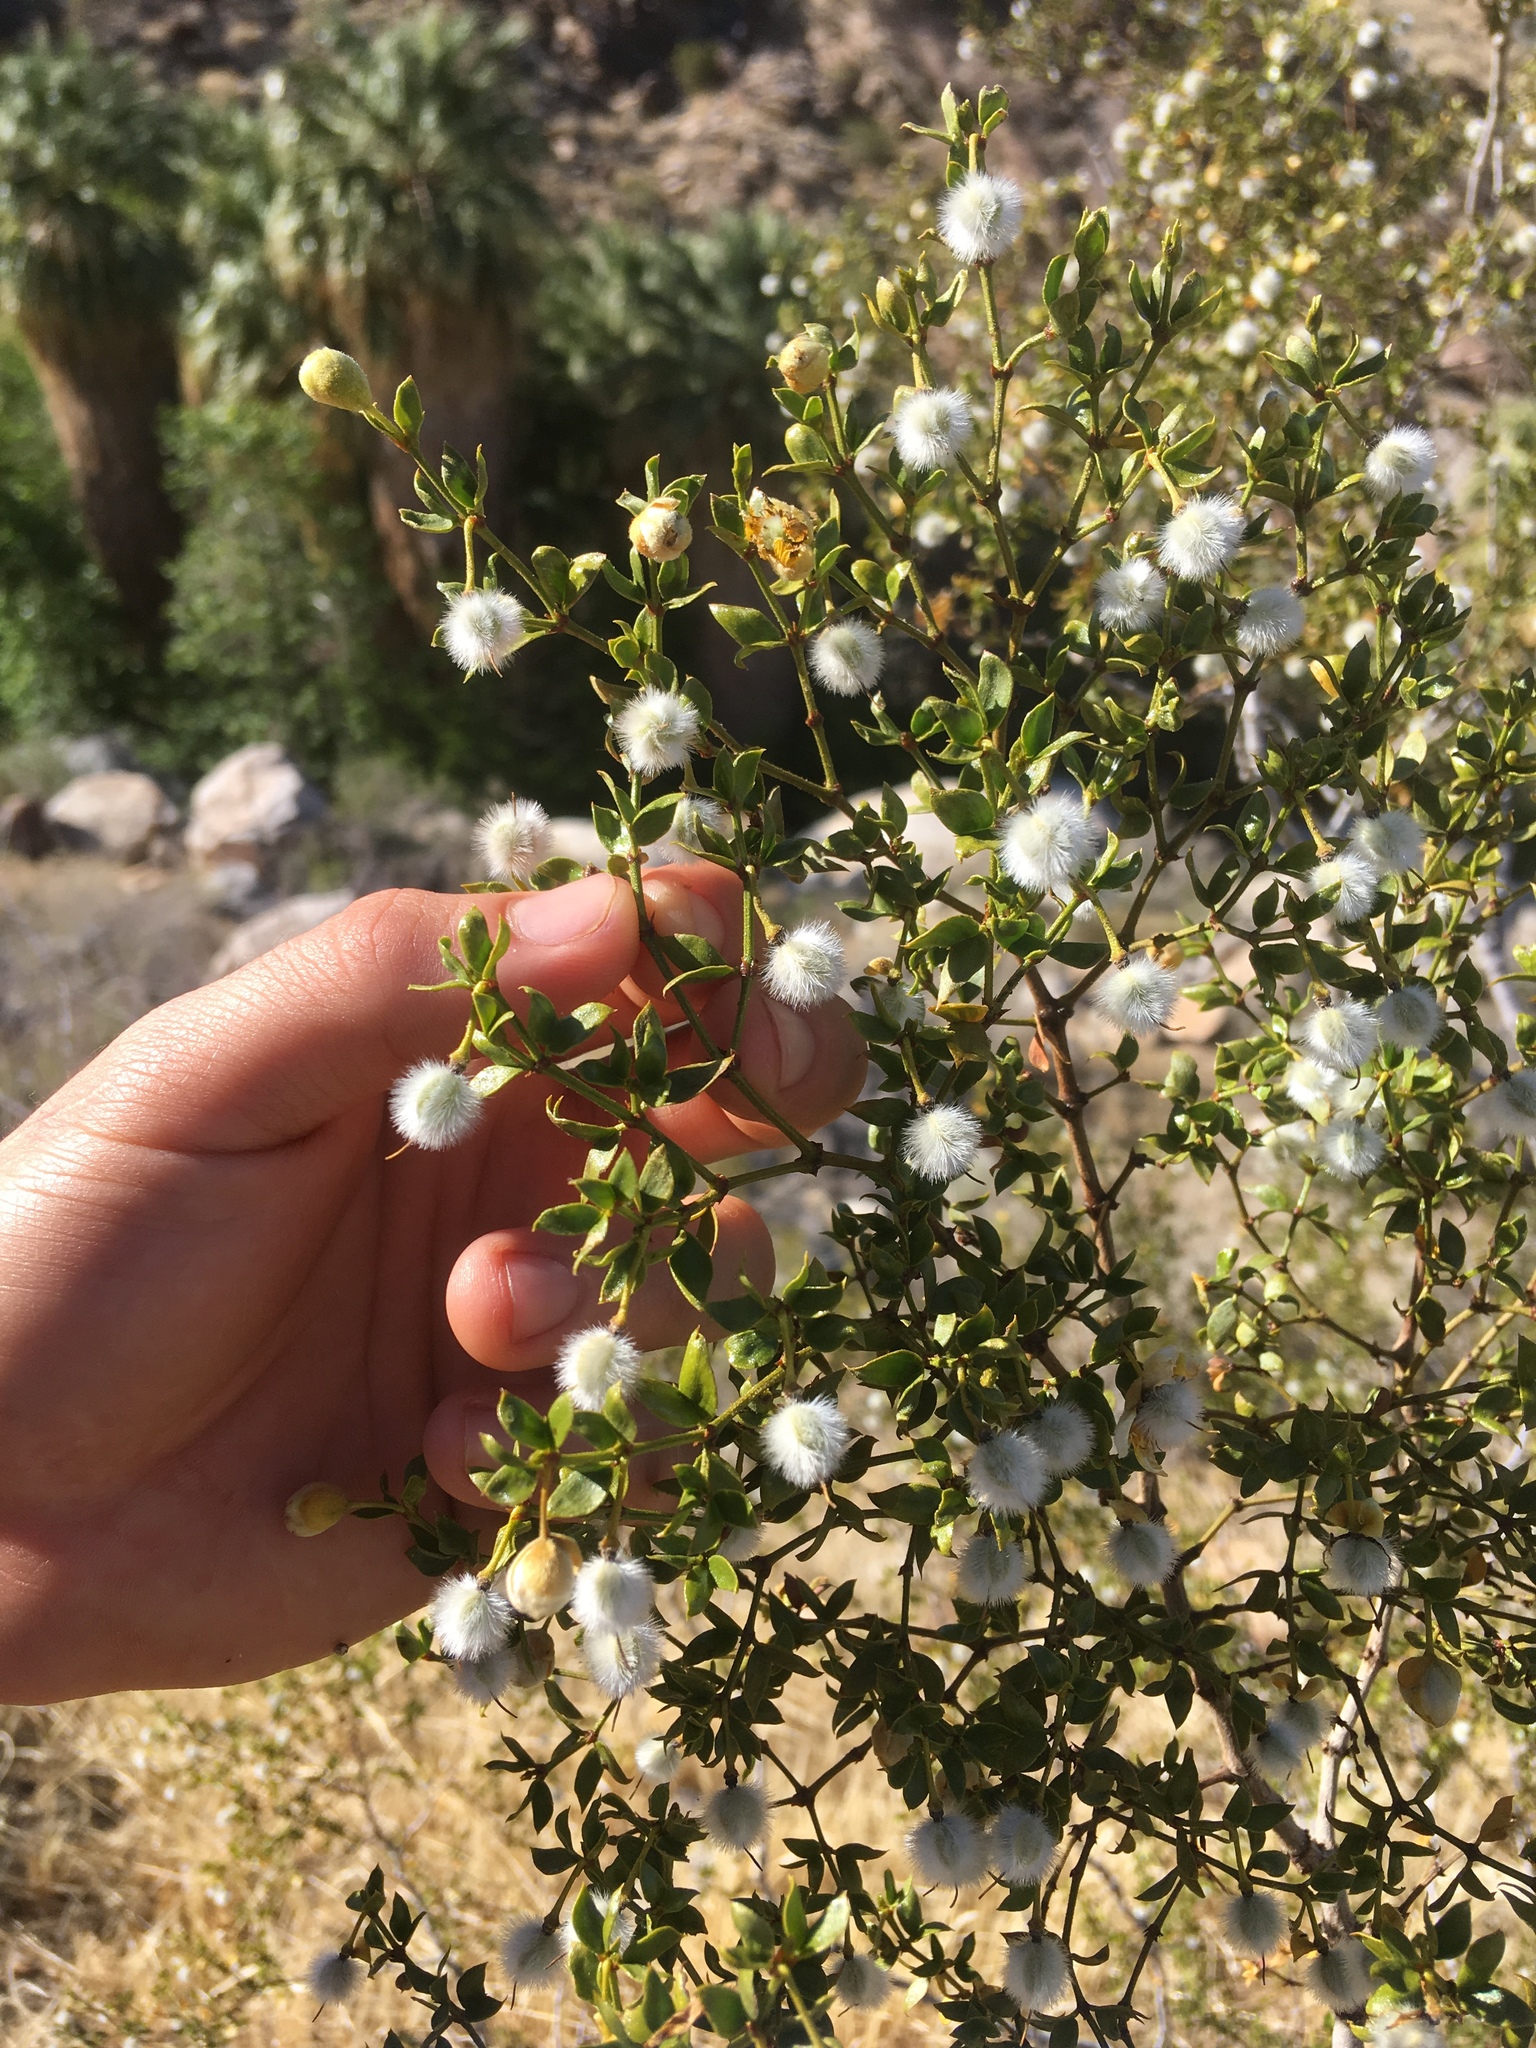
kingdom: Plantae
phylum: Tracheophyta
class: Magnoliopsida
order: Zygophyllales
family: Zygophyllaceae
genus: Larrea
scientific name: Larrea tridentata
